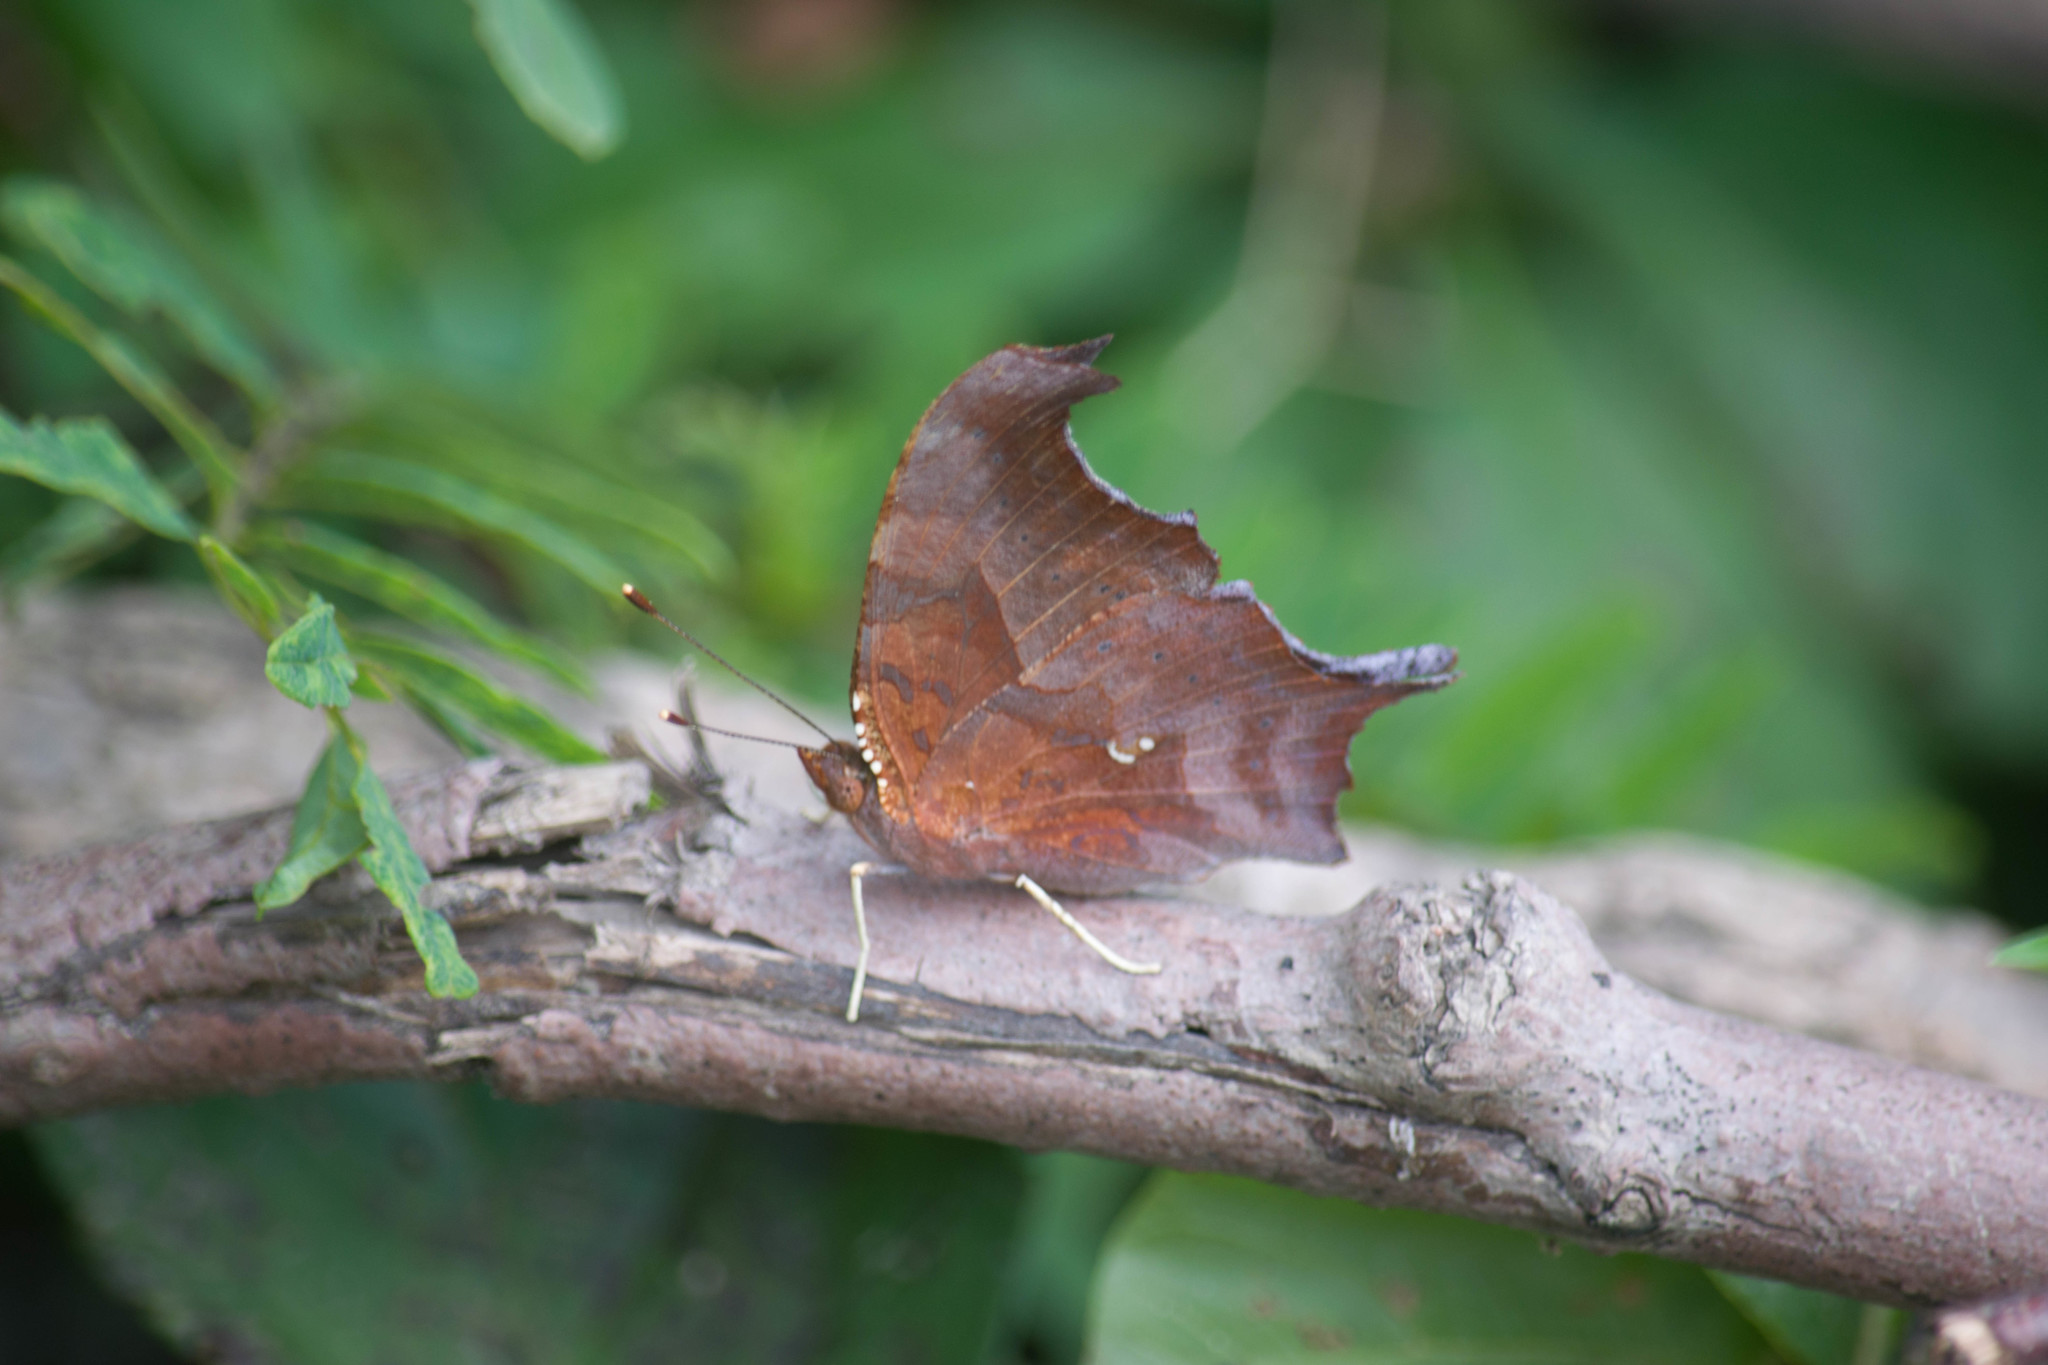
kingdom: Animalia
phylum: Arthropoda
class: Insecta
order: Lepidoptera
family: Nymphalidae
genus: Polygonia
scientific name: Polygonia interrogationis
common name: Question mark
